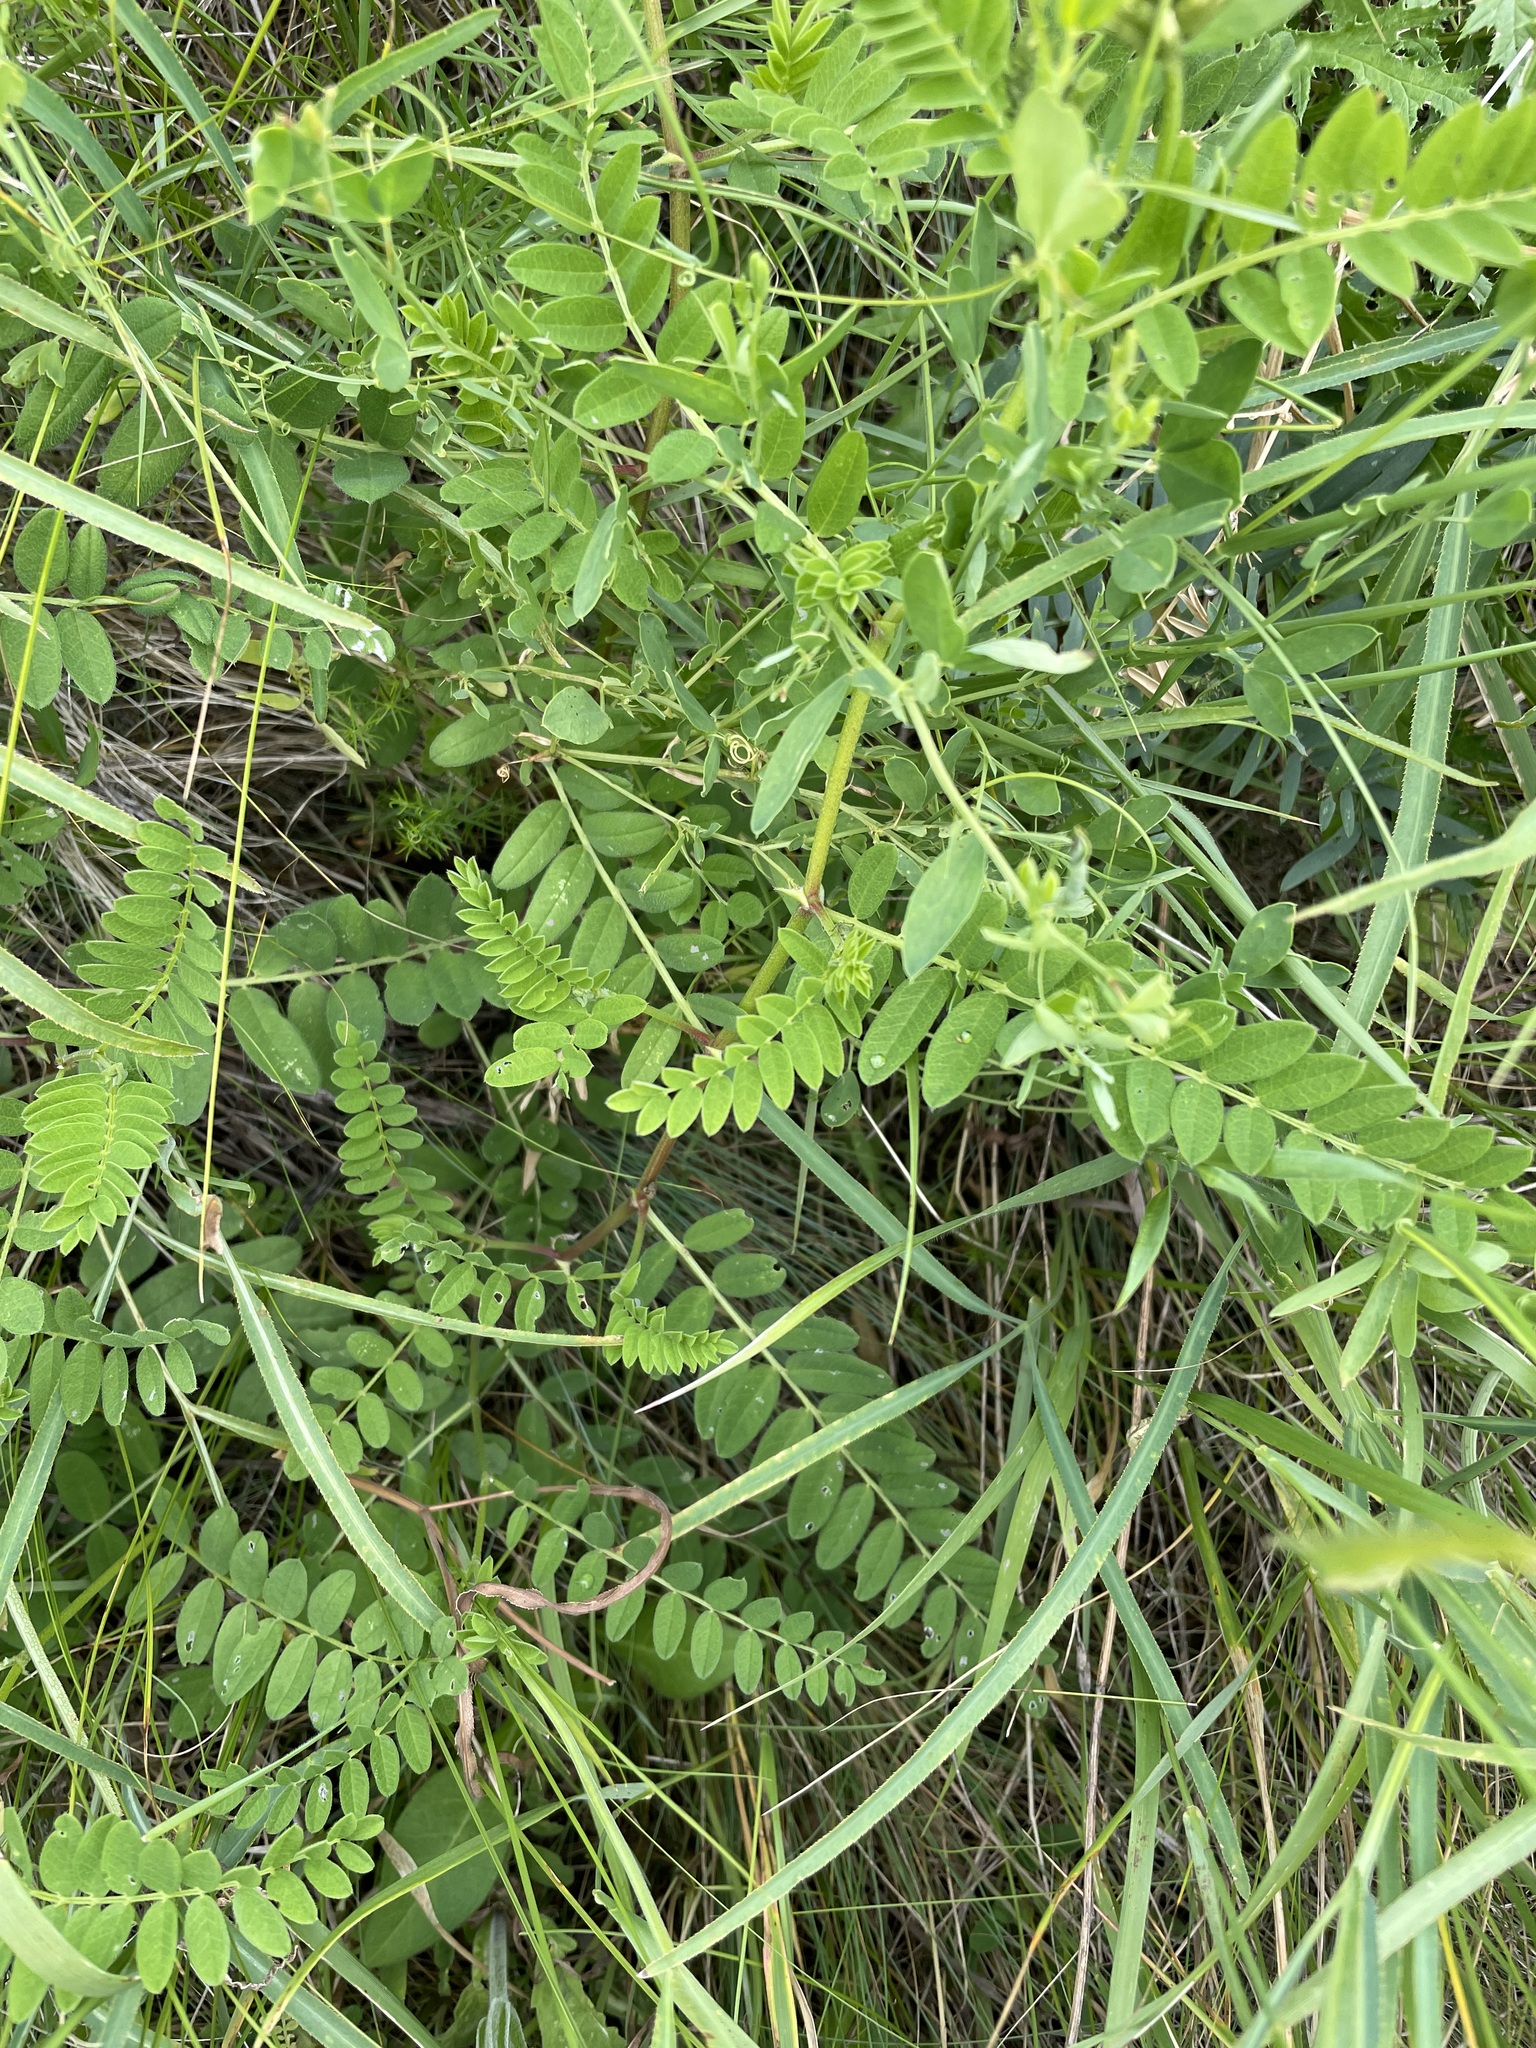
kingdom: Plantae
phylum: Tracheophyta
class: Magnoliopsida
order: Fabales
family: Fabaceae
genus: Astragalus
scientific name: Astragalus cicer
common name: Chick-pea milk-vetch
